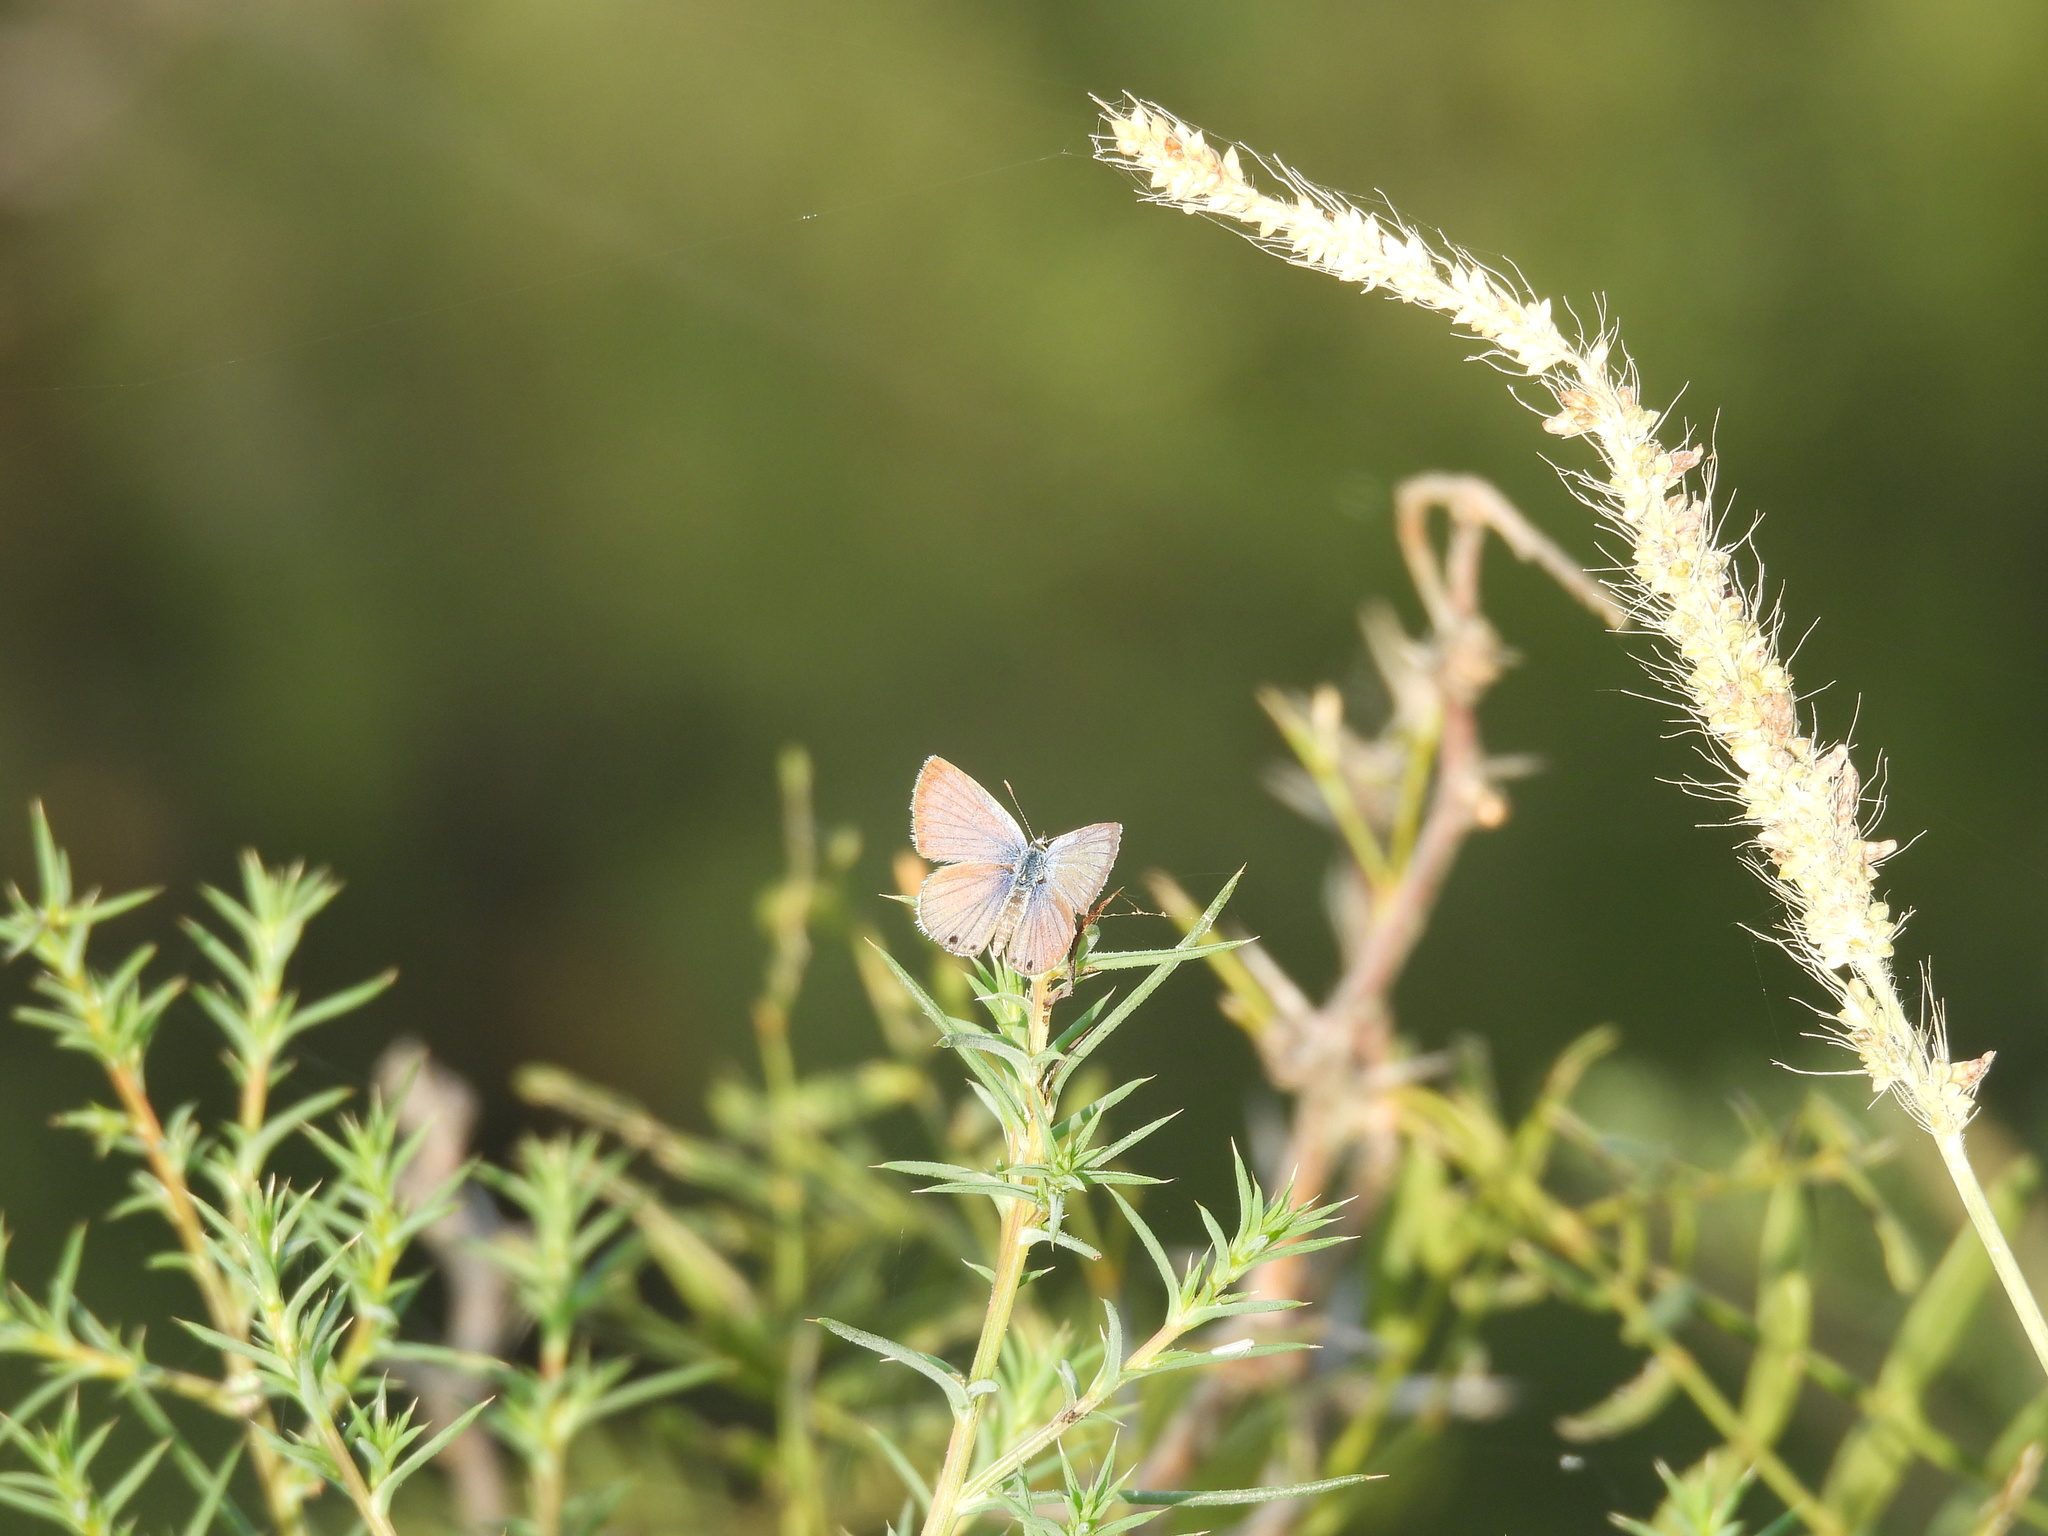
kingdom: Animalia
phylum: Arthropoda
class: Insecta
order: Lepidoptera
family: Lycaenidae
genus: Brephidium
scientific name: Brephidium exilis
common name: Pygmy blue
